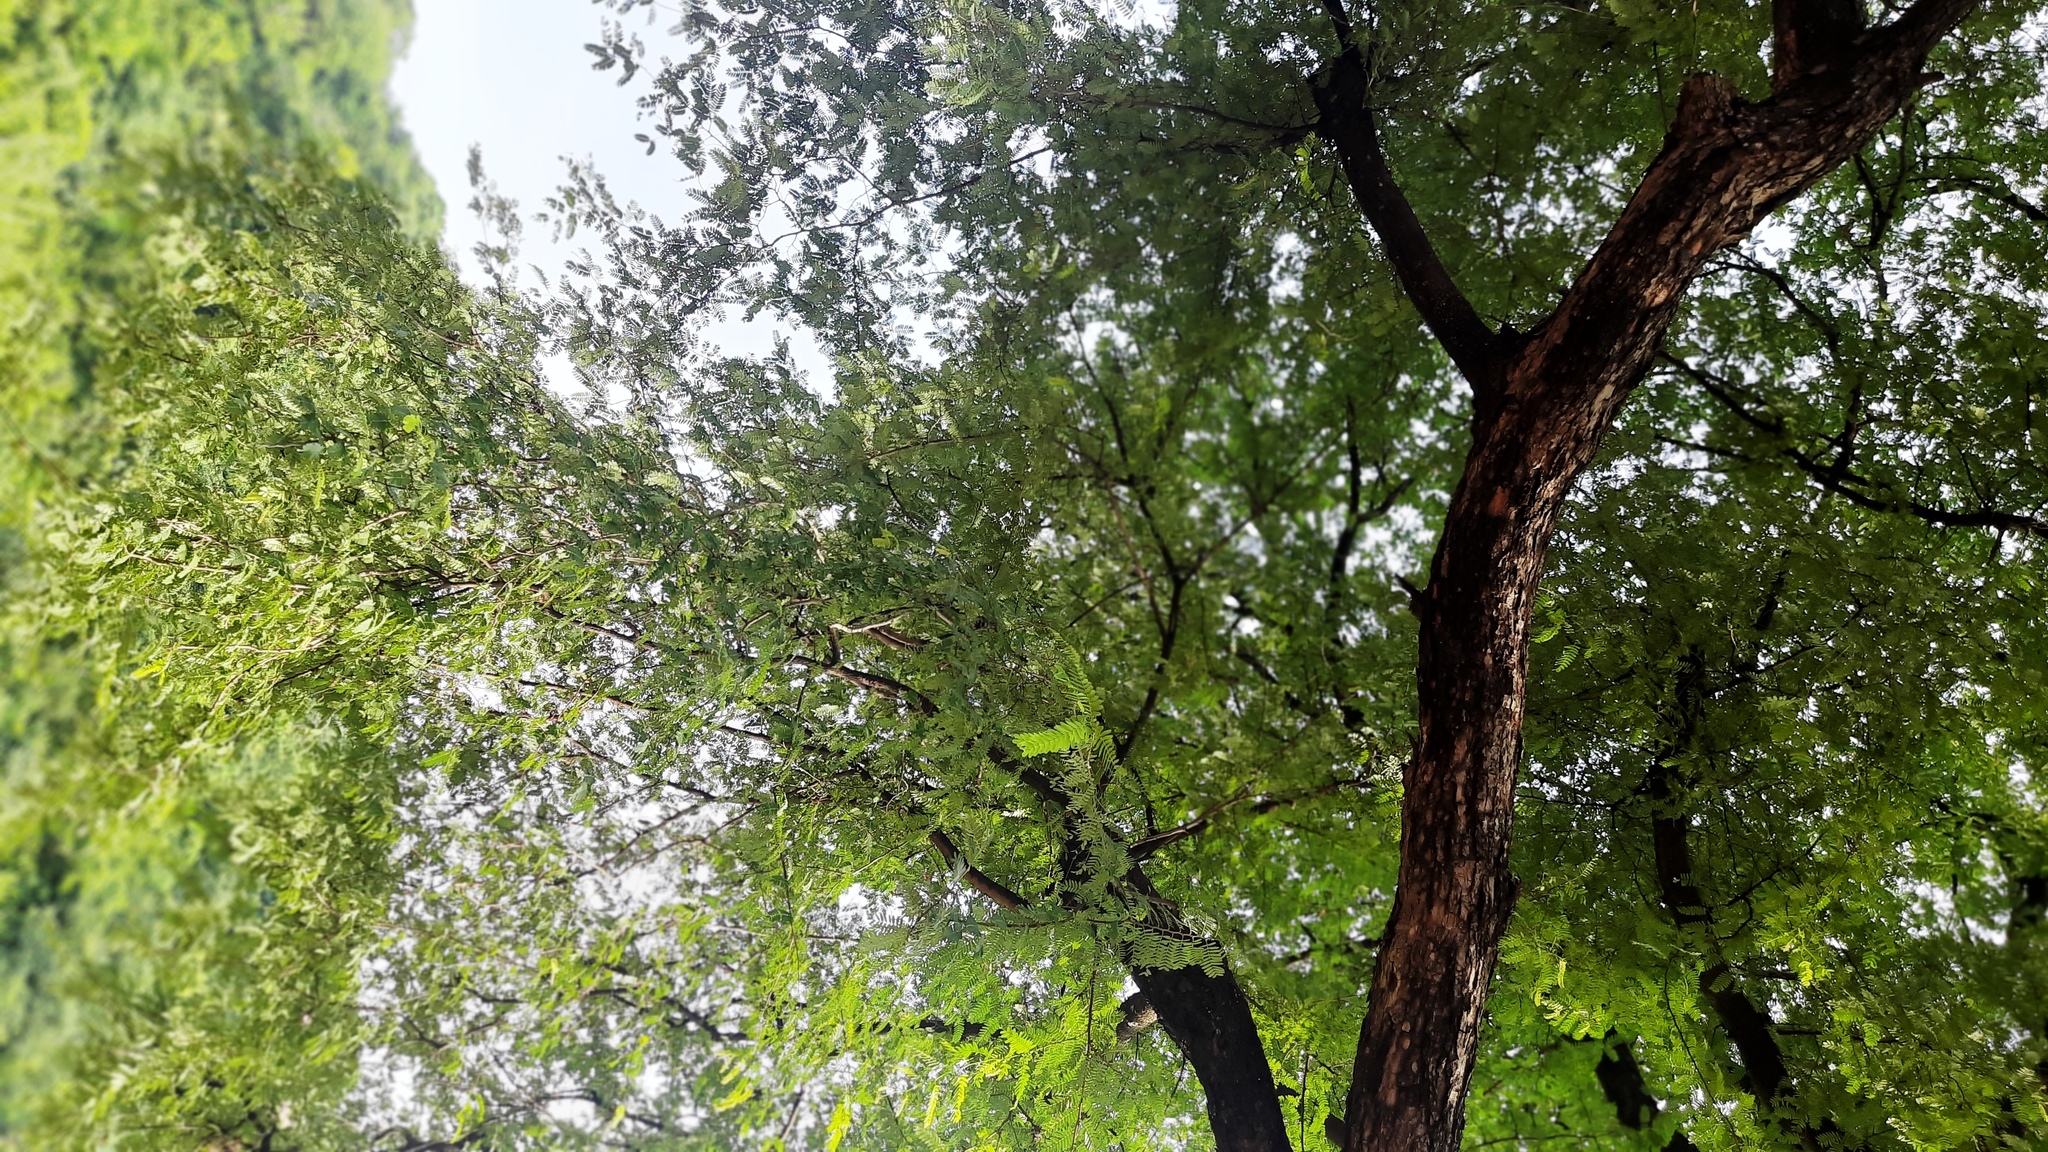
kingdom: Plantae
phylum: Tracheophyta
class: Magnoliopsida
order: Fabales
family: Fabaceae
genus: Tamarindus
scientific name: Tamarindus indica
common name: Tamarind
